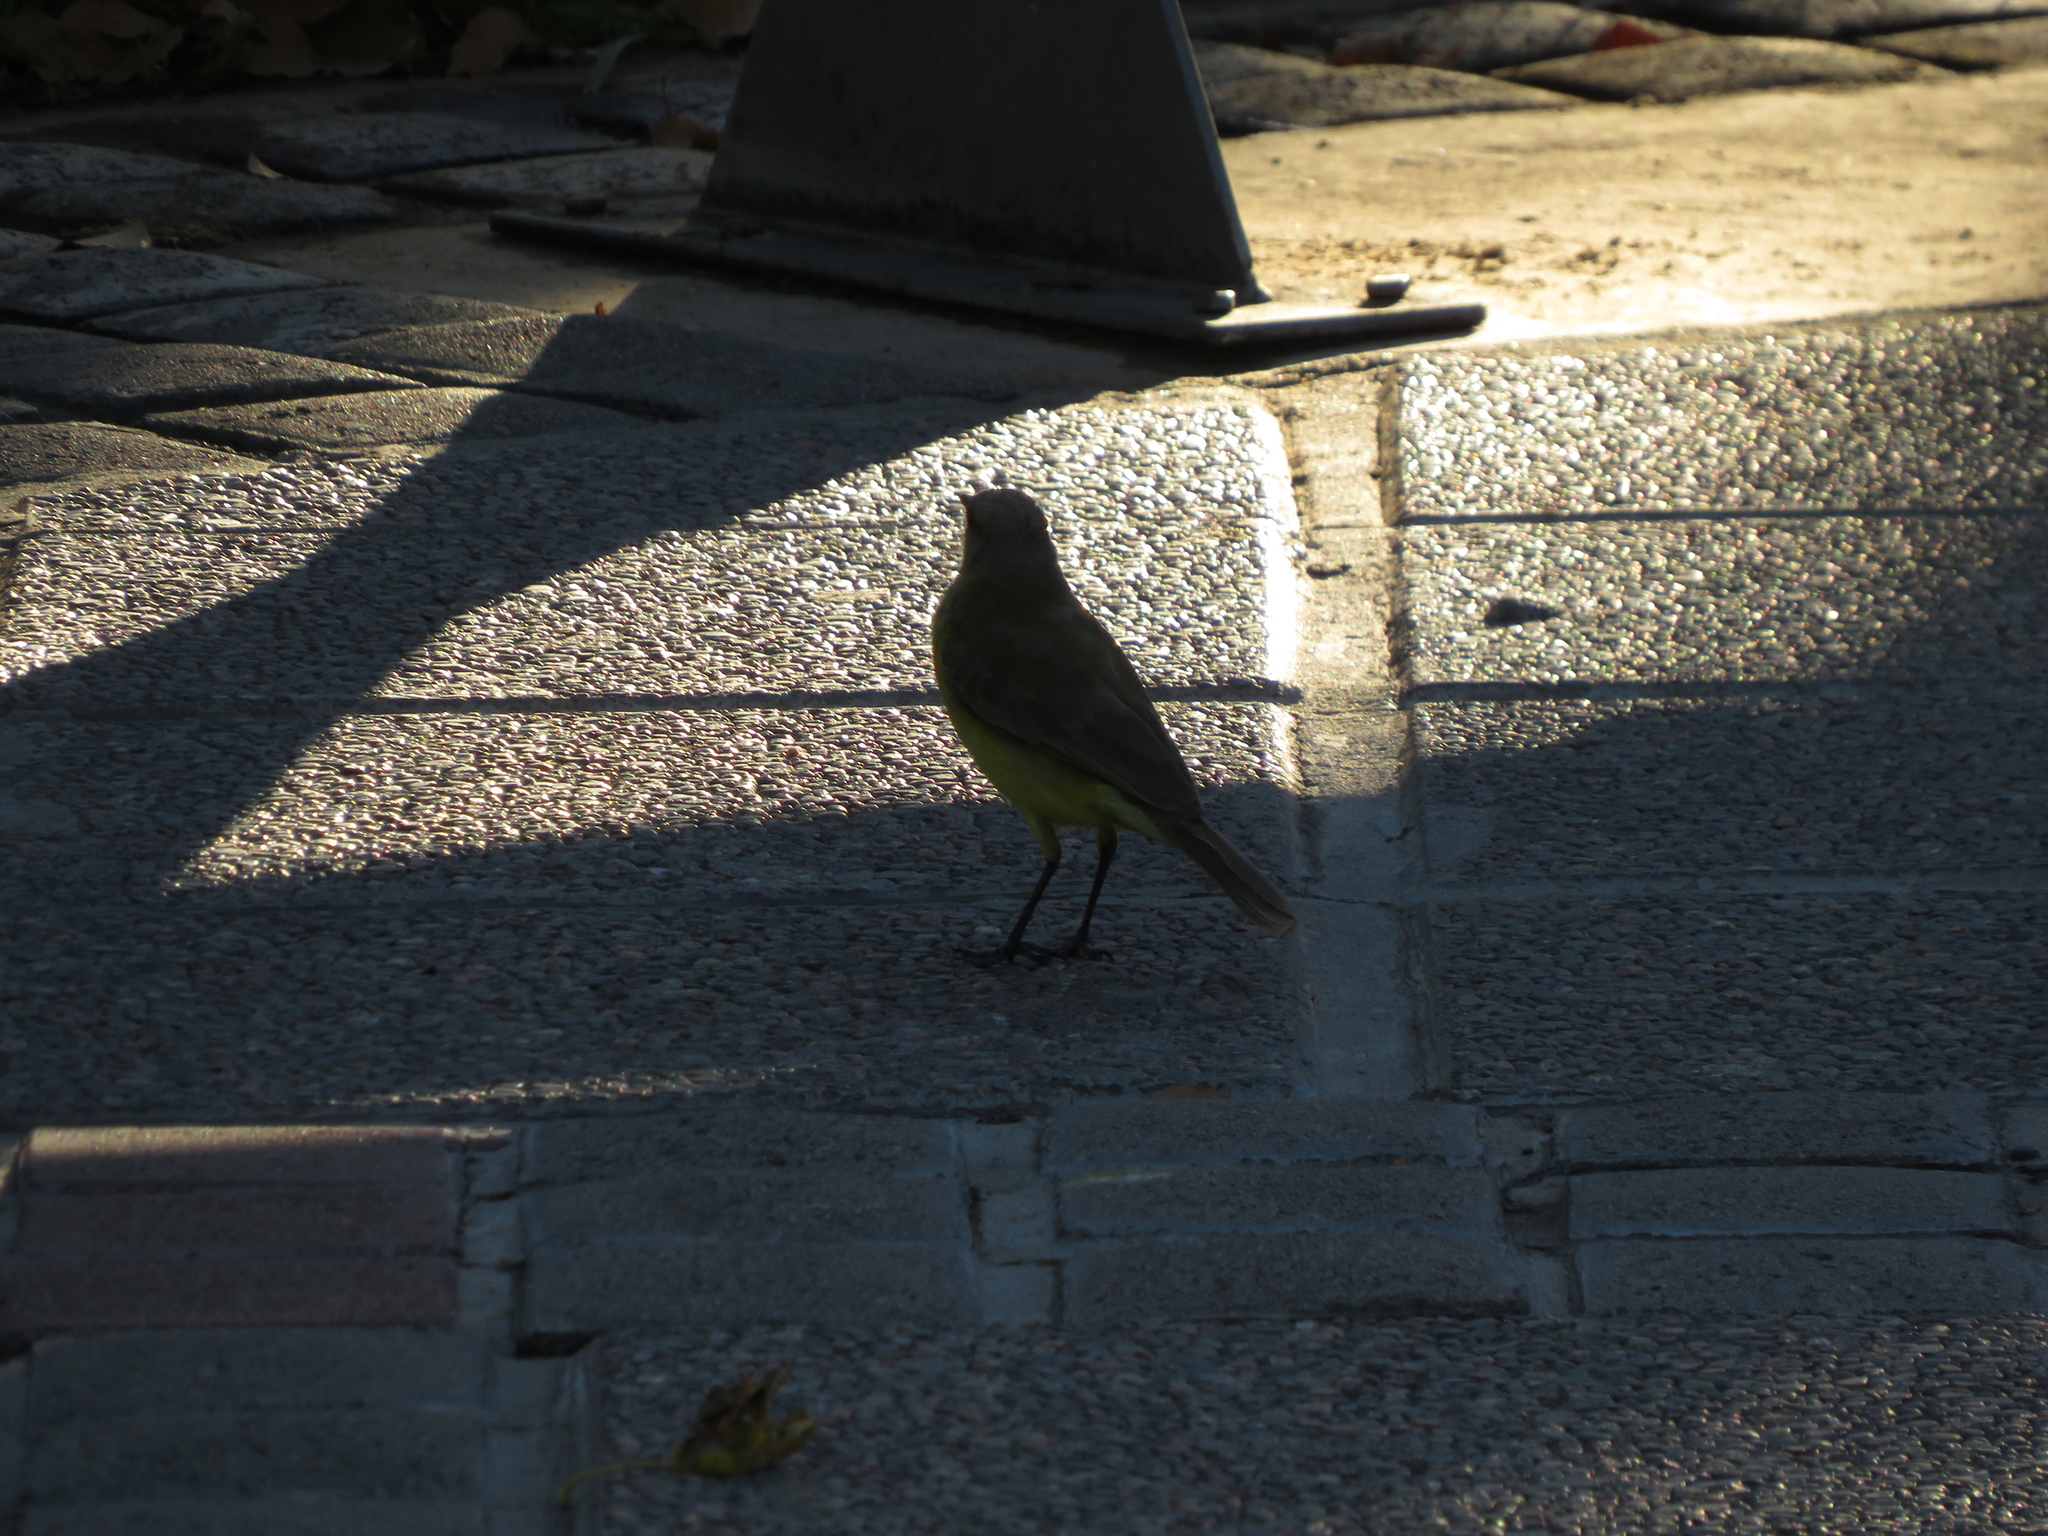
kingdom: Animalia
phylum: Chordata
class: Aves
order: Passeriformes
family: Tyrannidae
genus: Machetornis
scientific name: Machetornis rixosa
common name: Cattle tyrant
